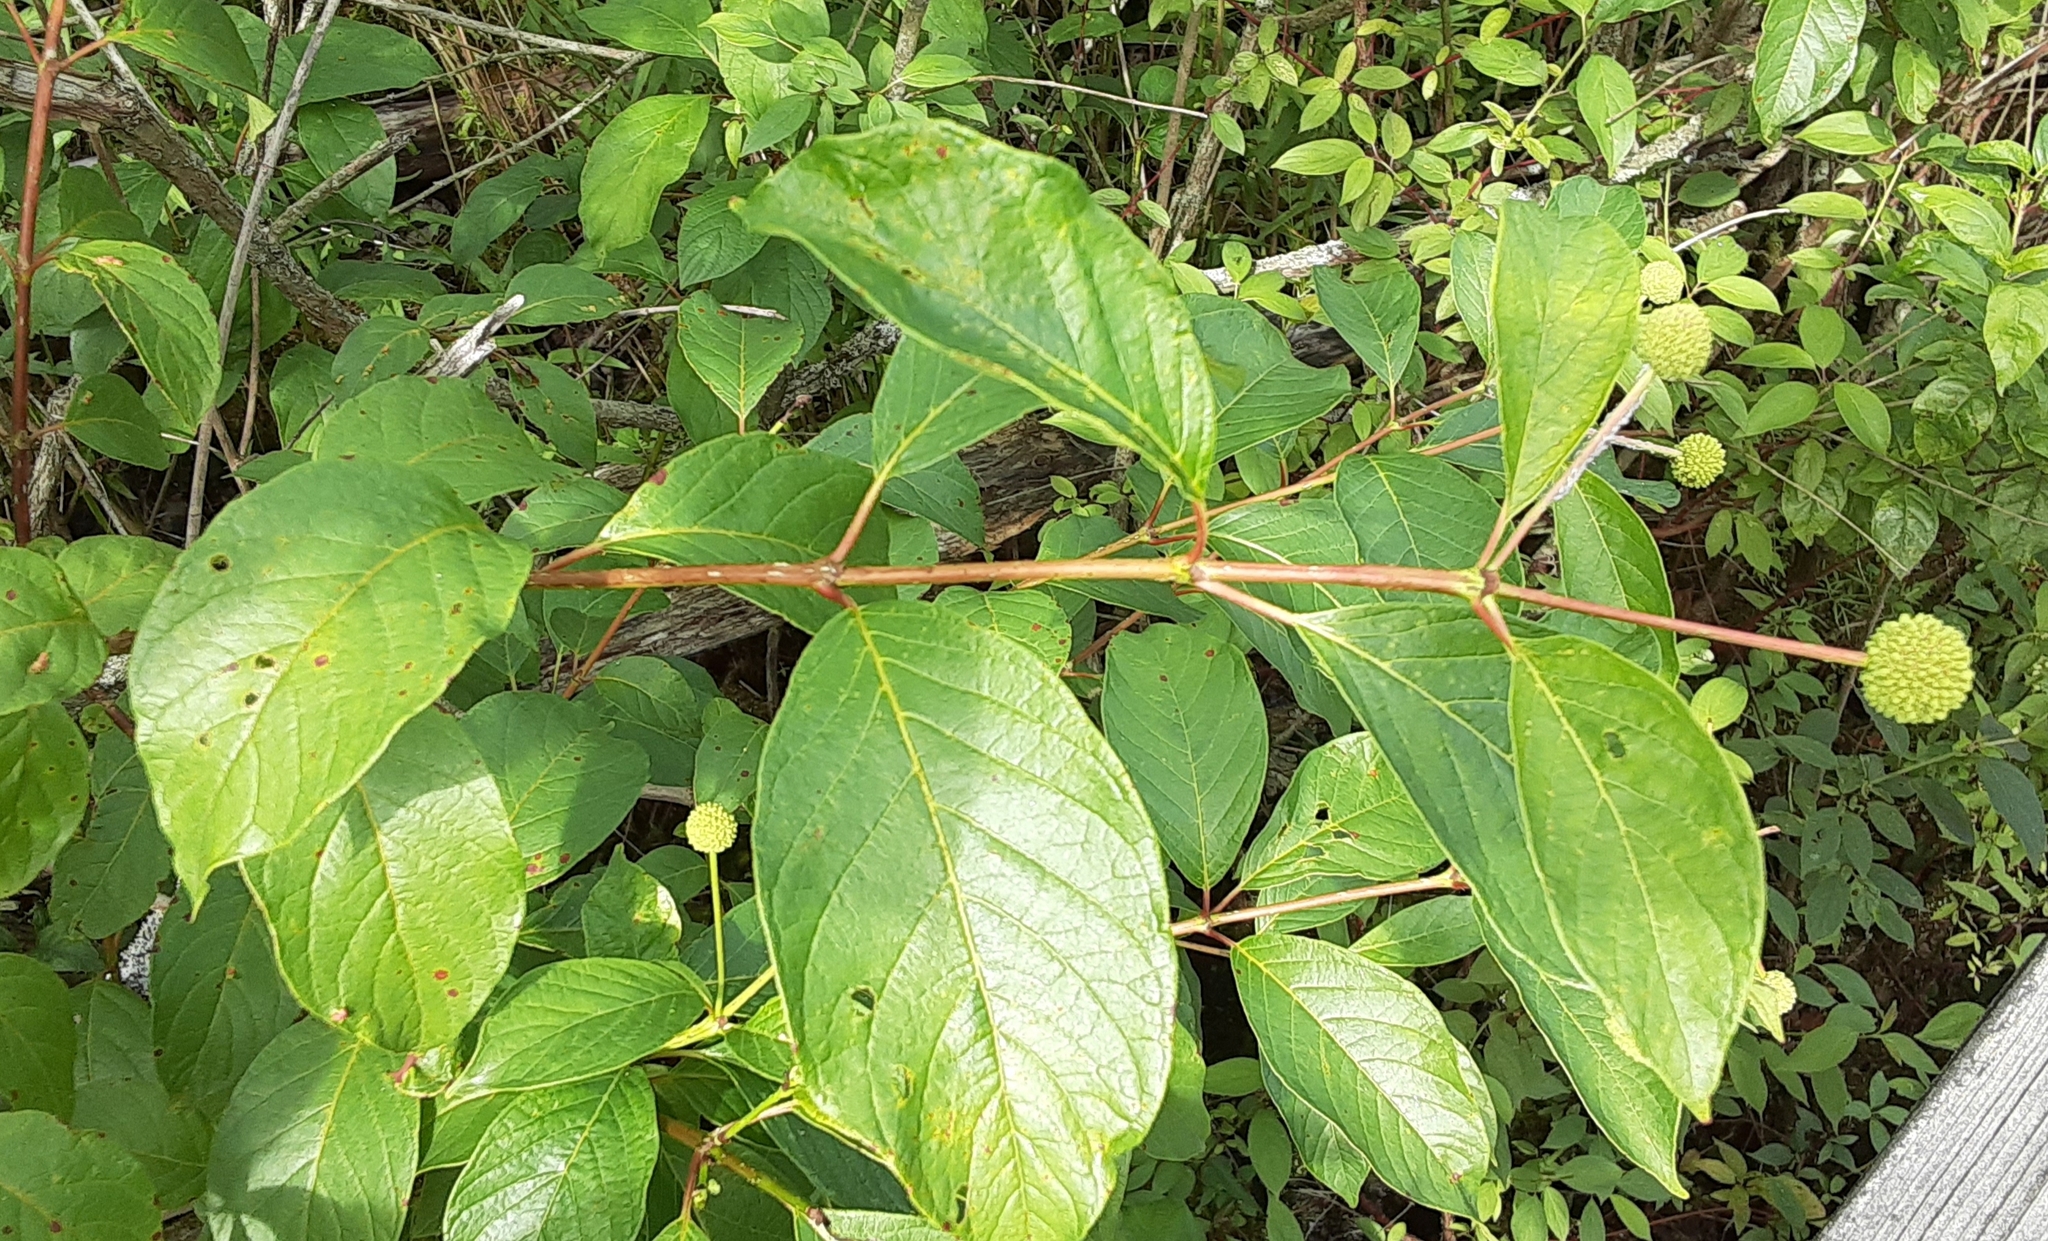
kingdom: Plantae
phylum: Tracheophyta
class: Magnoliopsida
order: Gentianales
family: Rubiaceae
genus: Cephalanthus
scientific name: Cephalanthus occidentalis
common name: Button-willow
